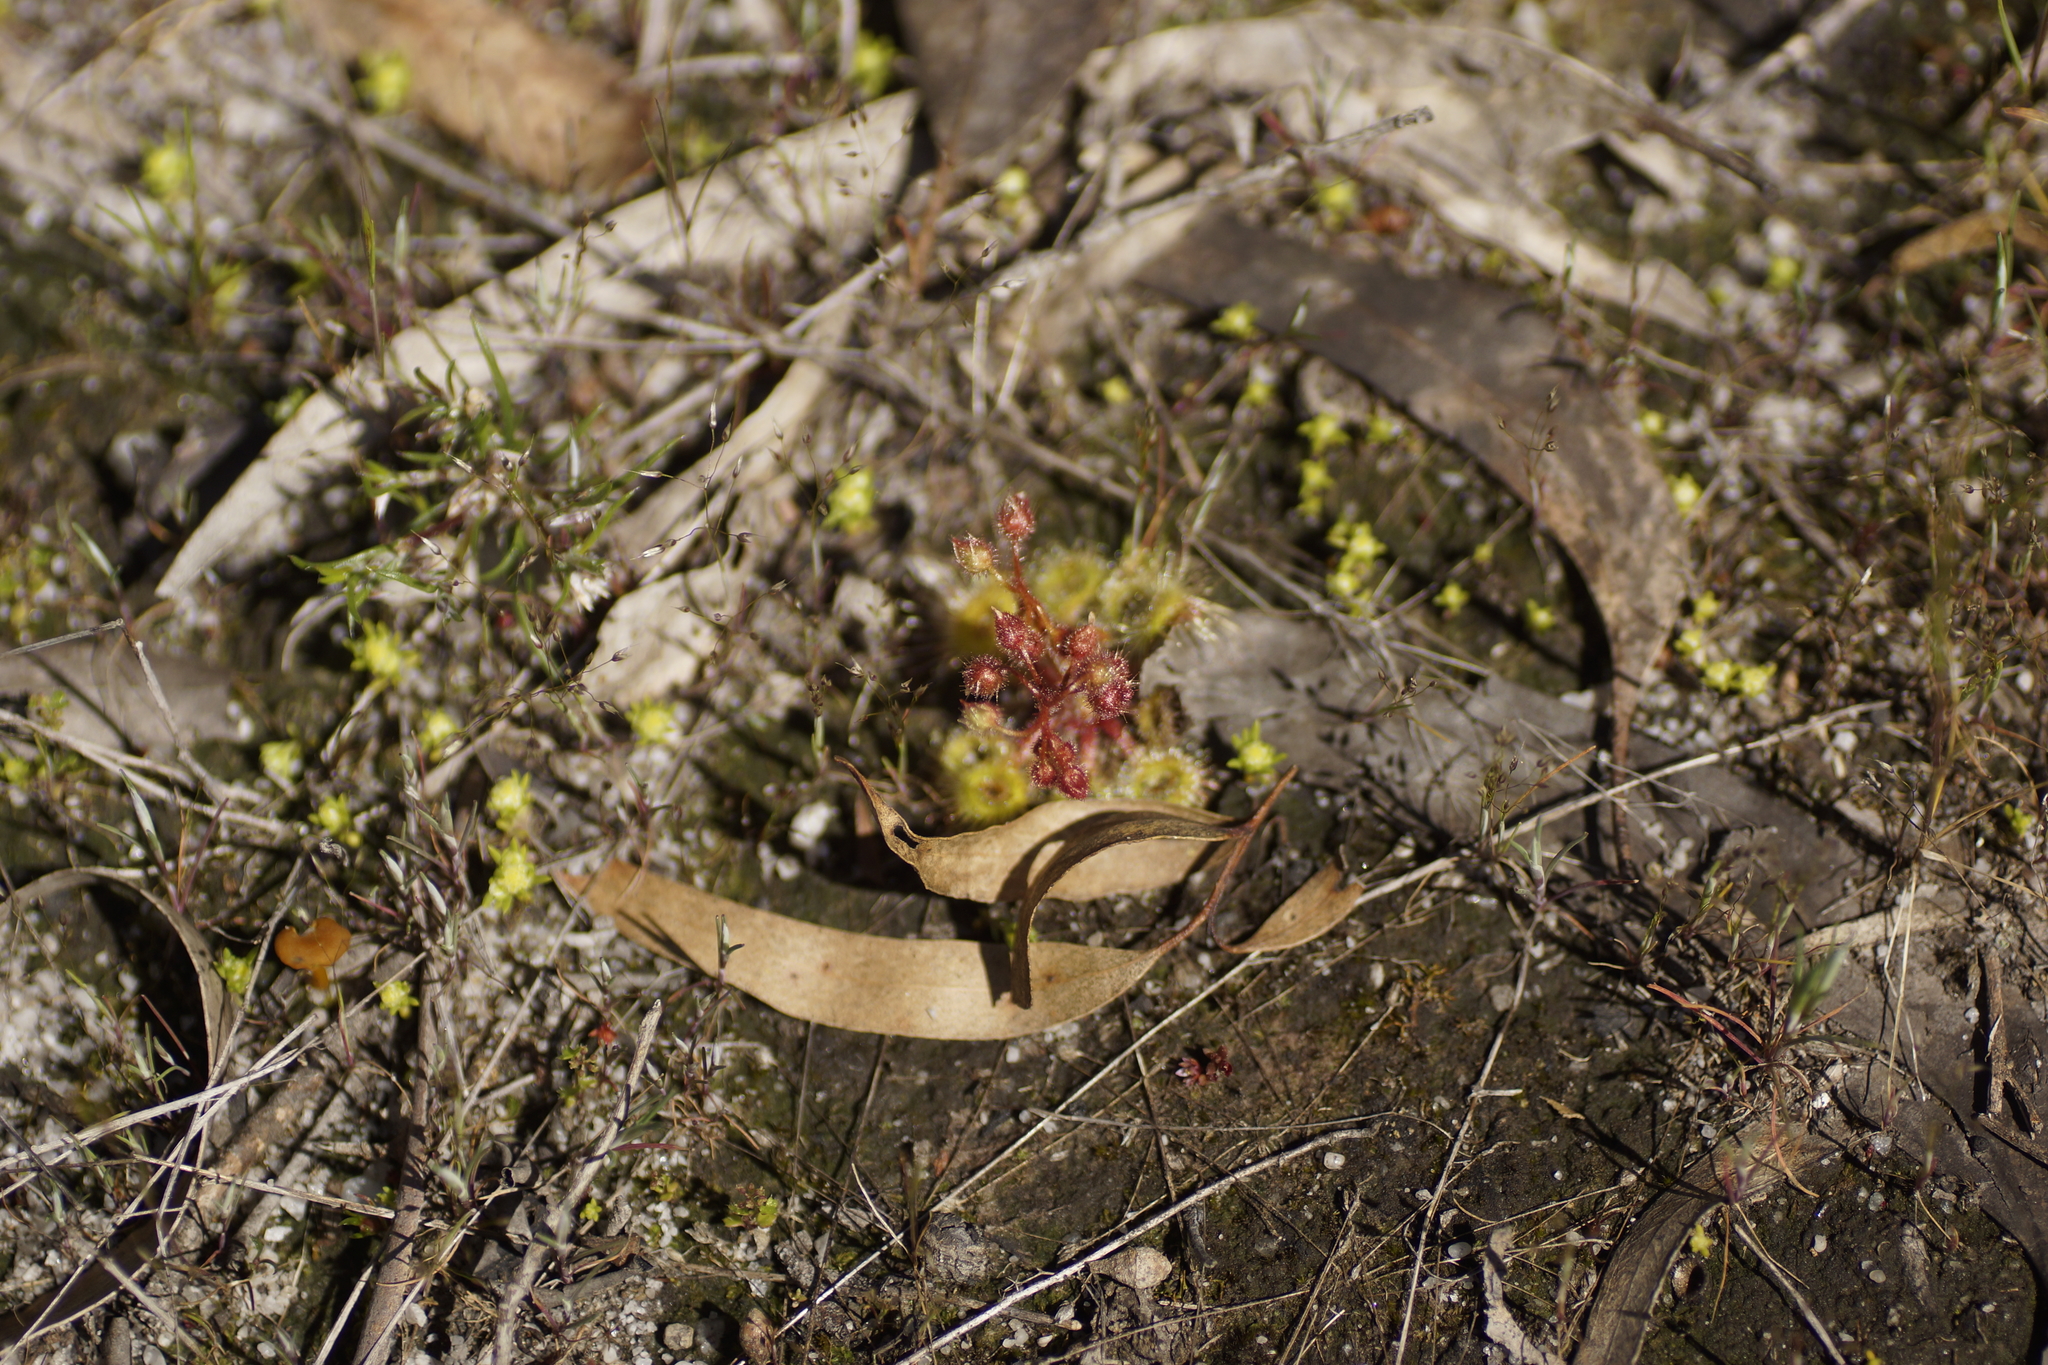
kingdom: Plantae
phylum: Tracheophyta
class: Magnoliopsida
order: Caryophyllales
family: Droseraceae
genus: Drosera
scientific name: Drosera glanduligera
